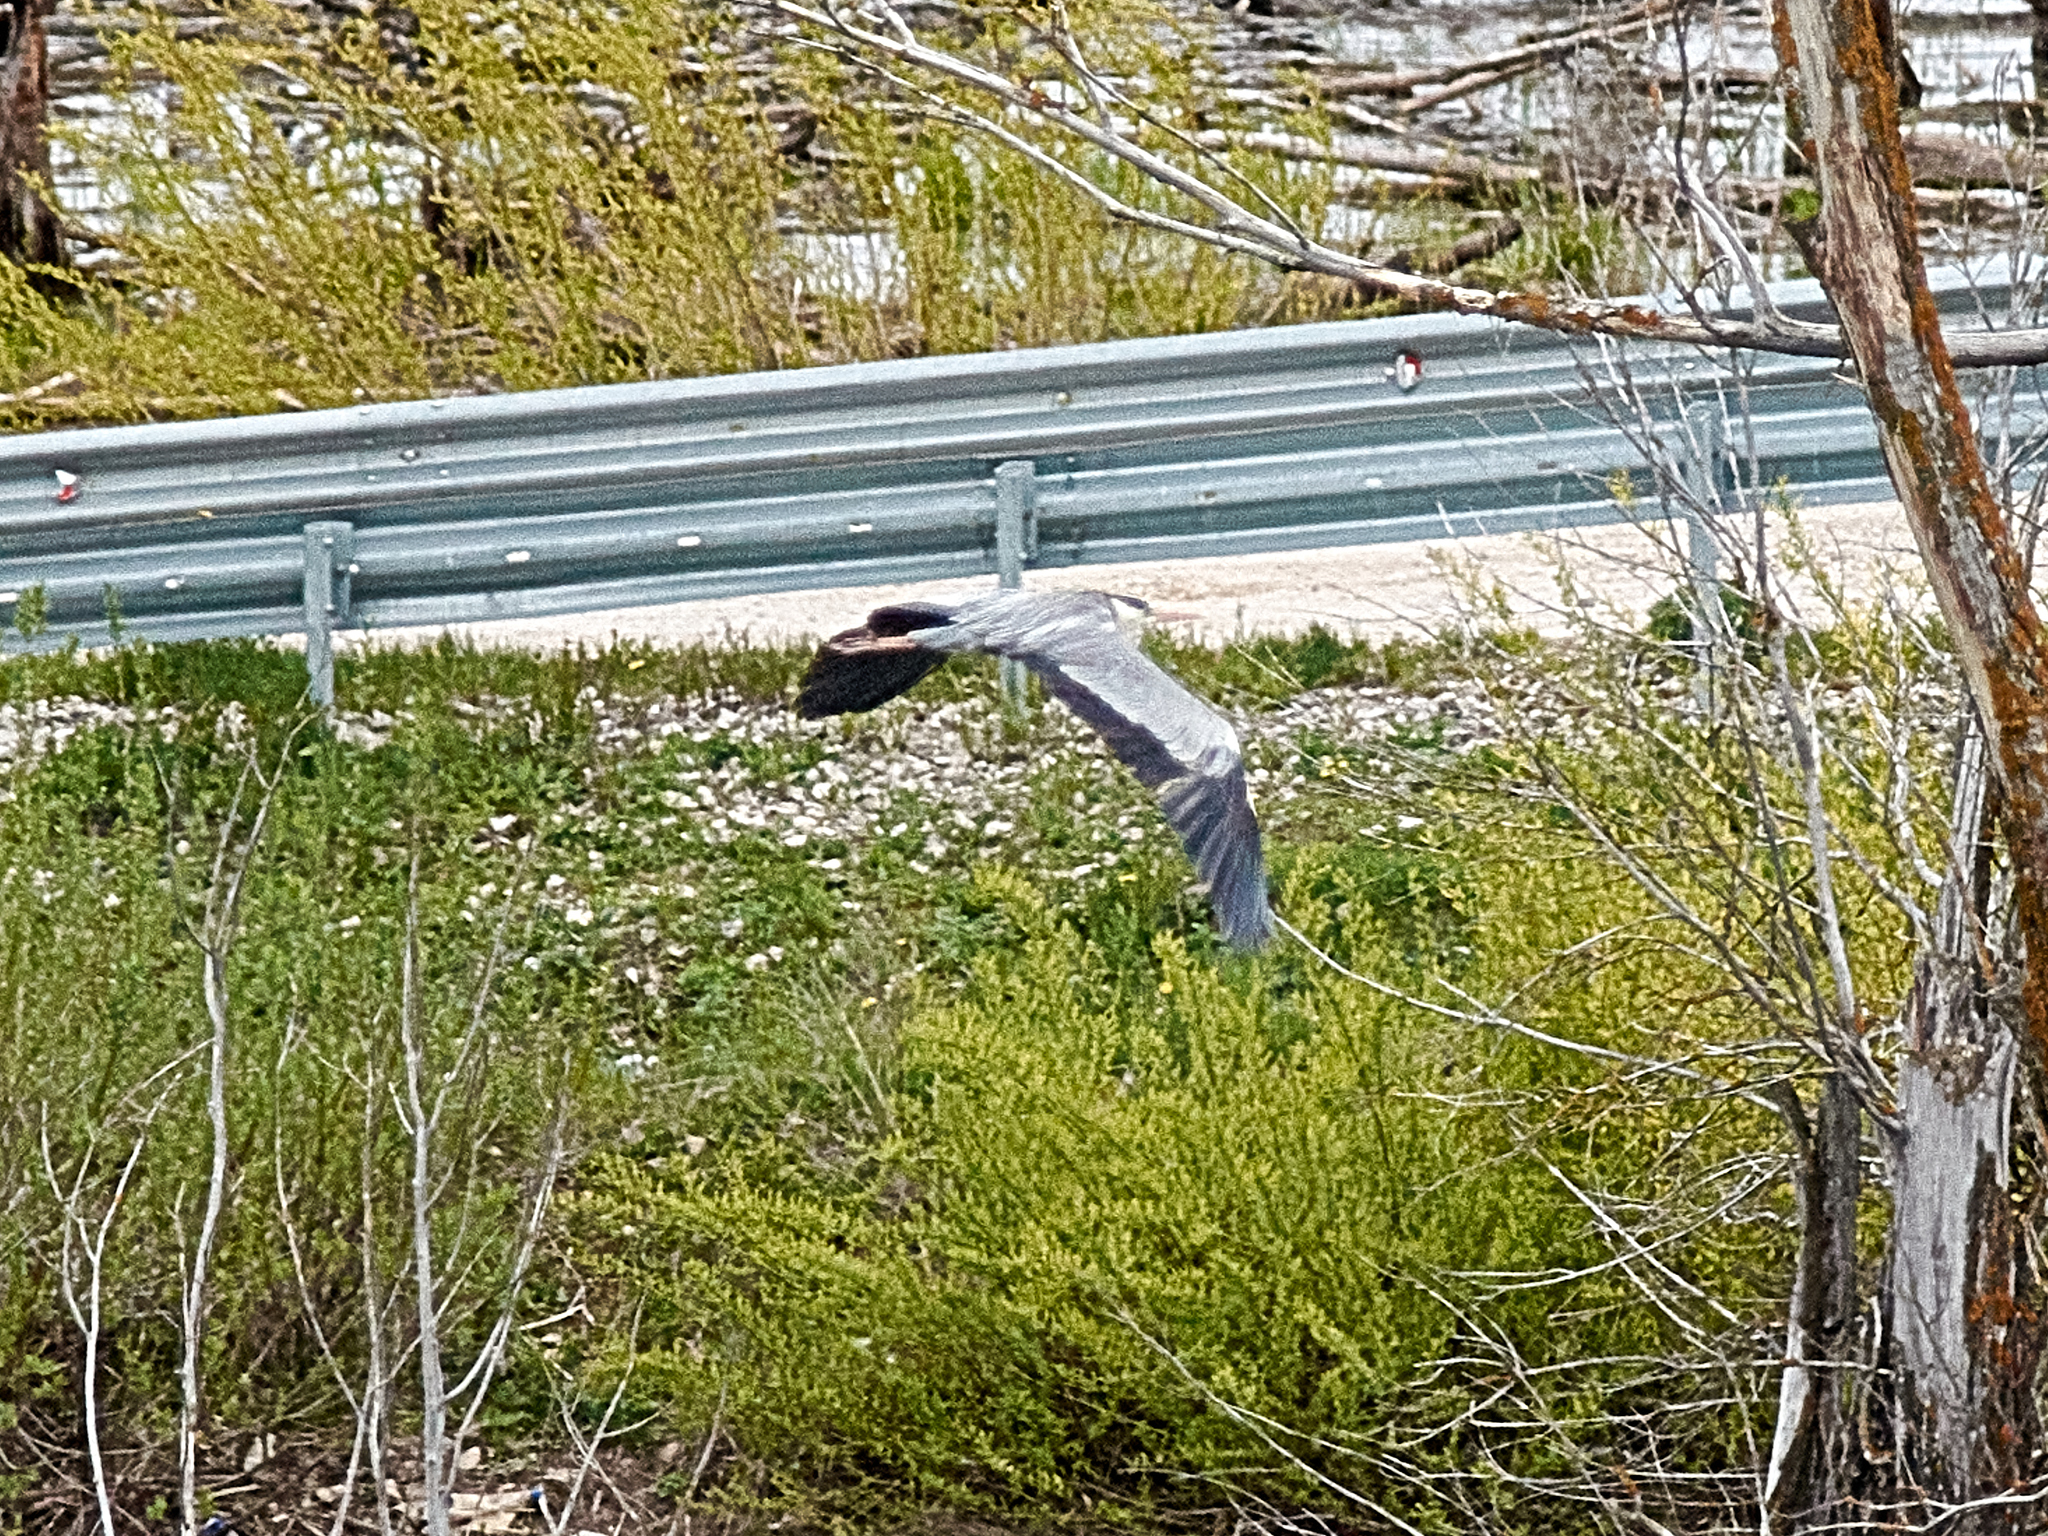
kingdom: Animalia
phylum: Chordata
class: Aves
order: Pelecaniformes
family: Ardeidae
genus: Ardea
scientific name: Ardea cinerea
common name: Grey heron
